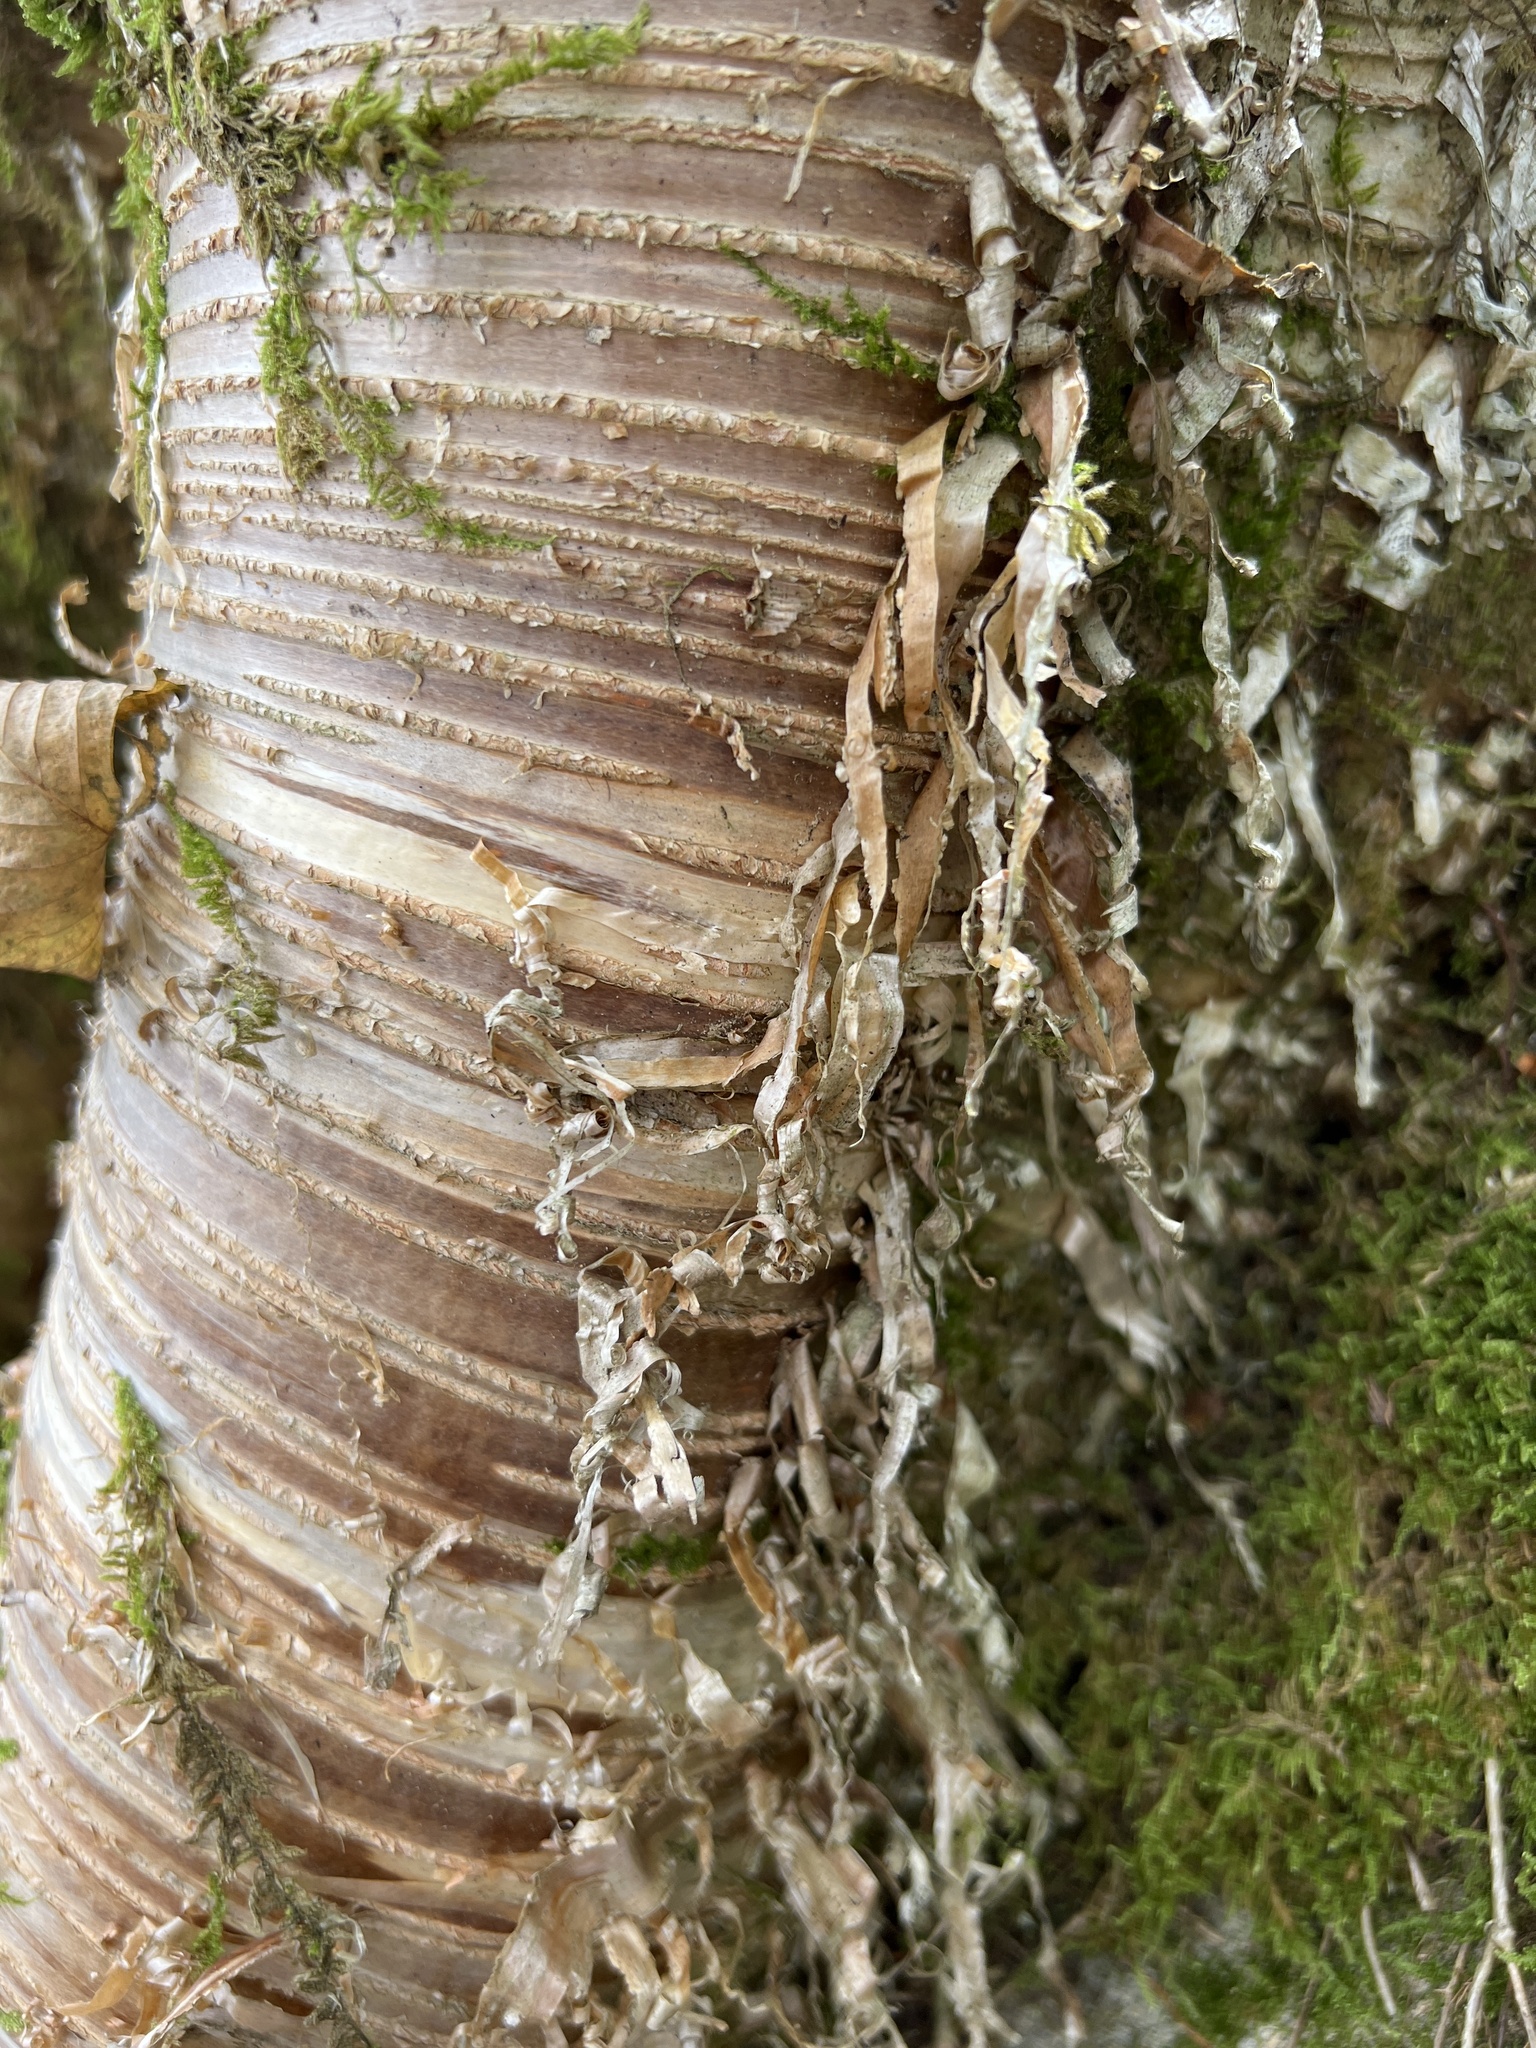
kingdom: Plantae
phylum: Tracheophyta
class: Magnoliopsida
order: Fagales
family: Betulaceae
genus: Betula
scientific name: Betula alleghaniensis
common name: Yellow birch
